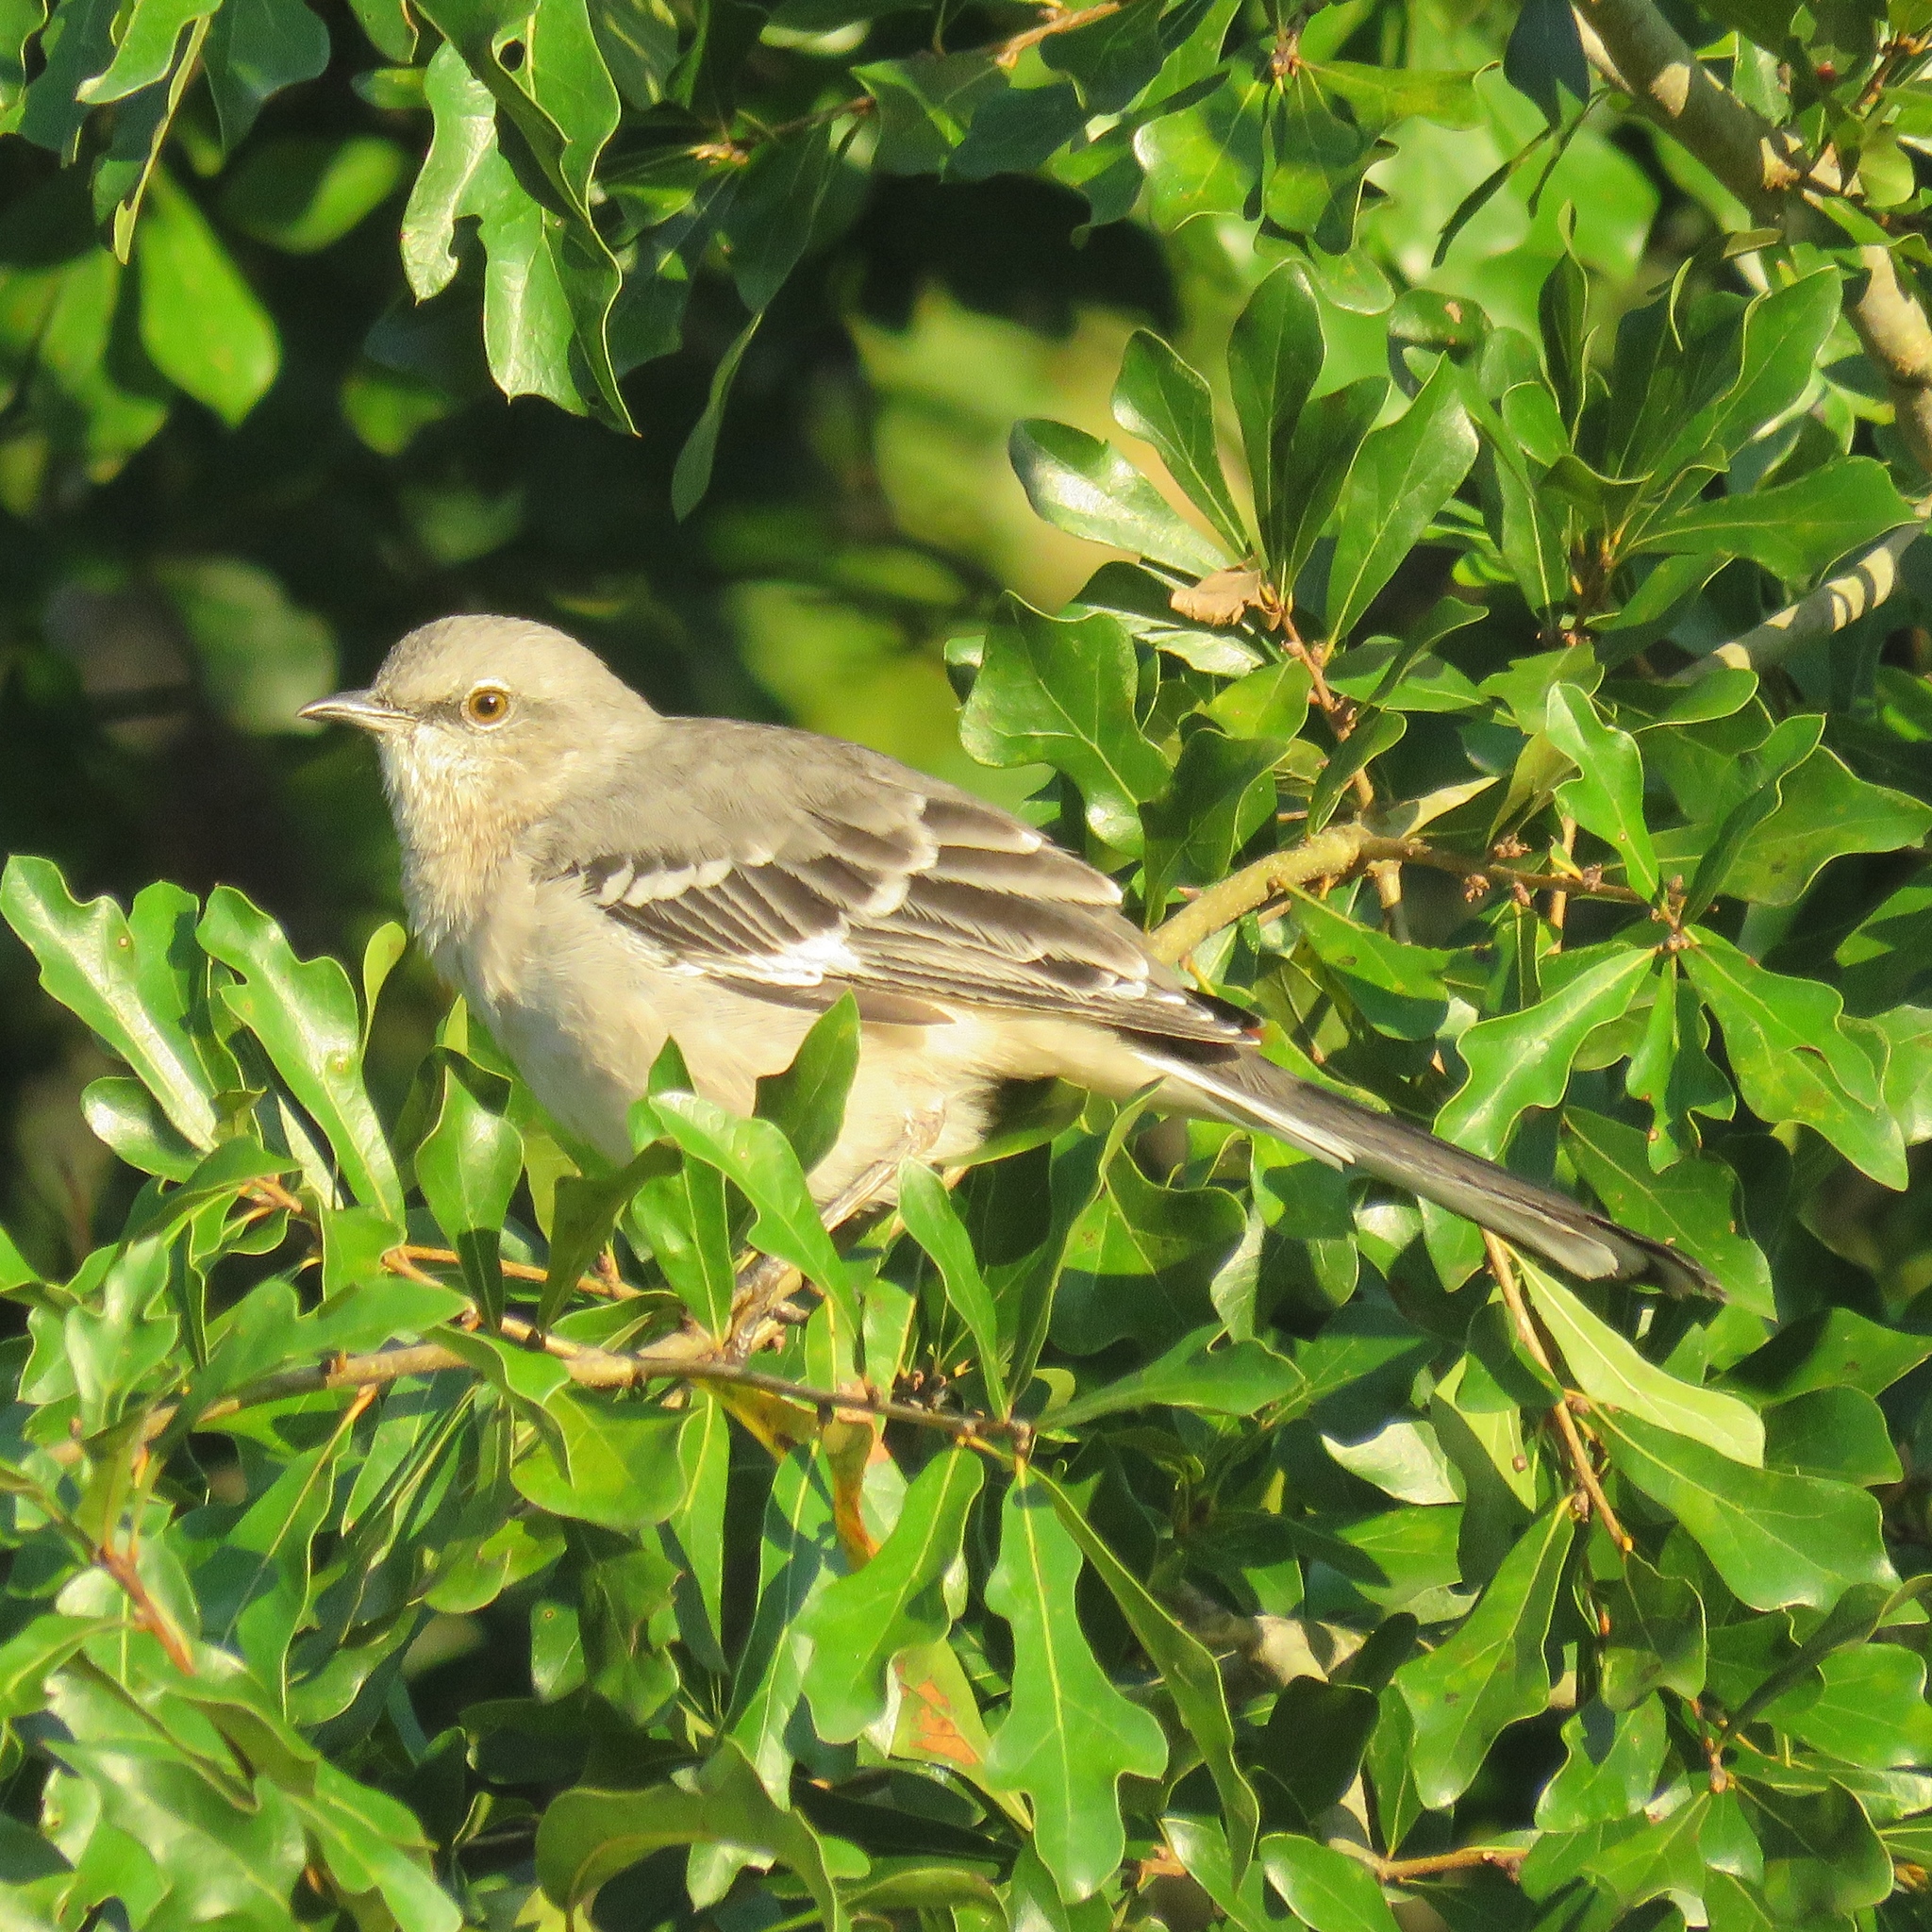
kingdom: Animalia
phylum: Chordata
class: Aves
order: Passeriformes
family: Mimidae
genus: Mimus
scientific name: Mimus polyglottos
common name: Northern mockingbird
